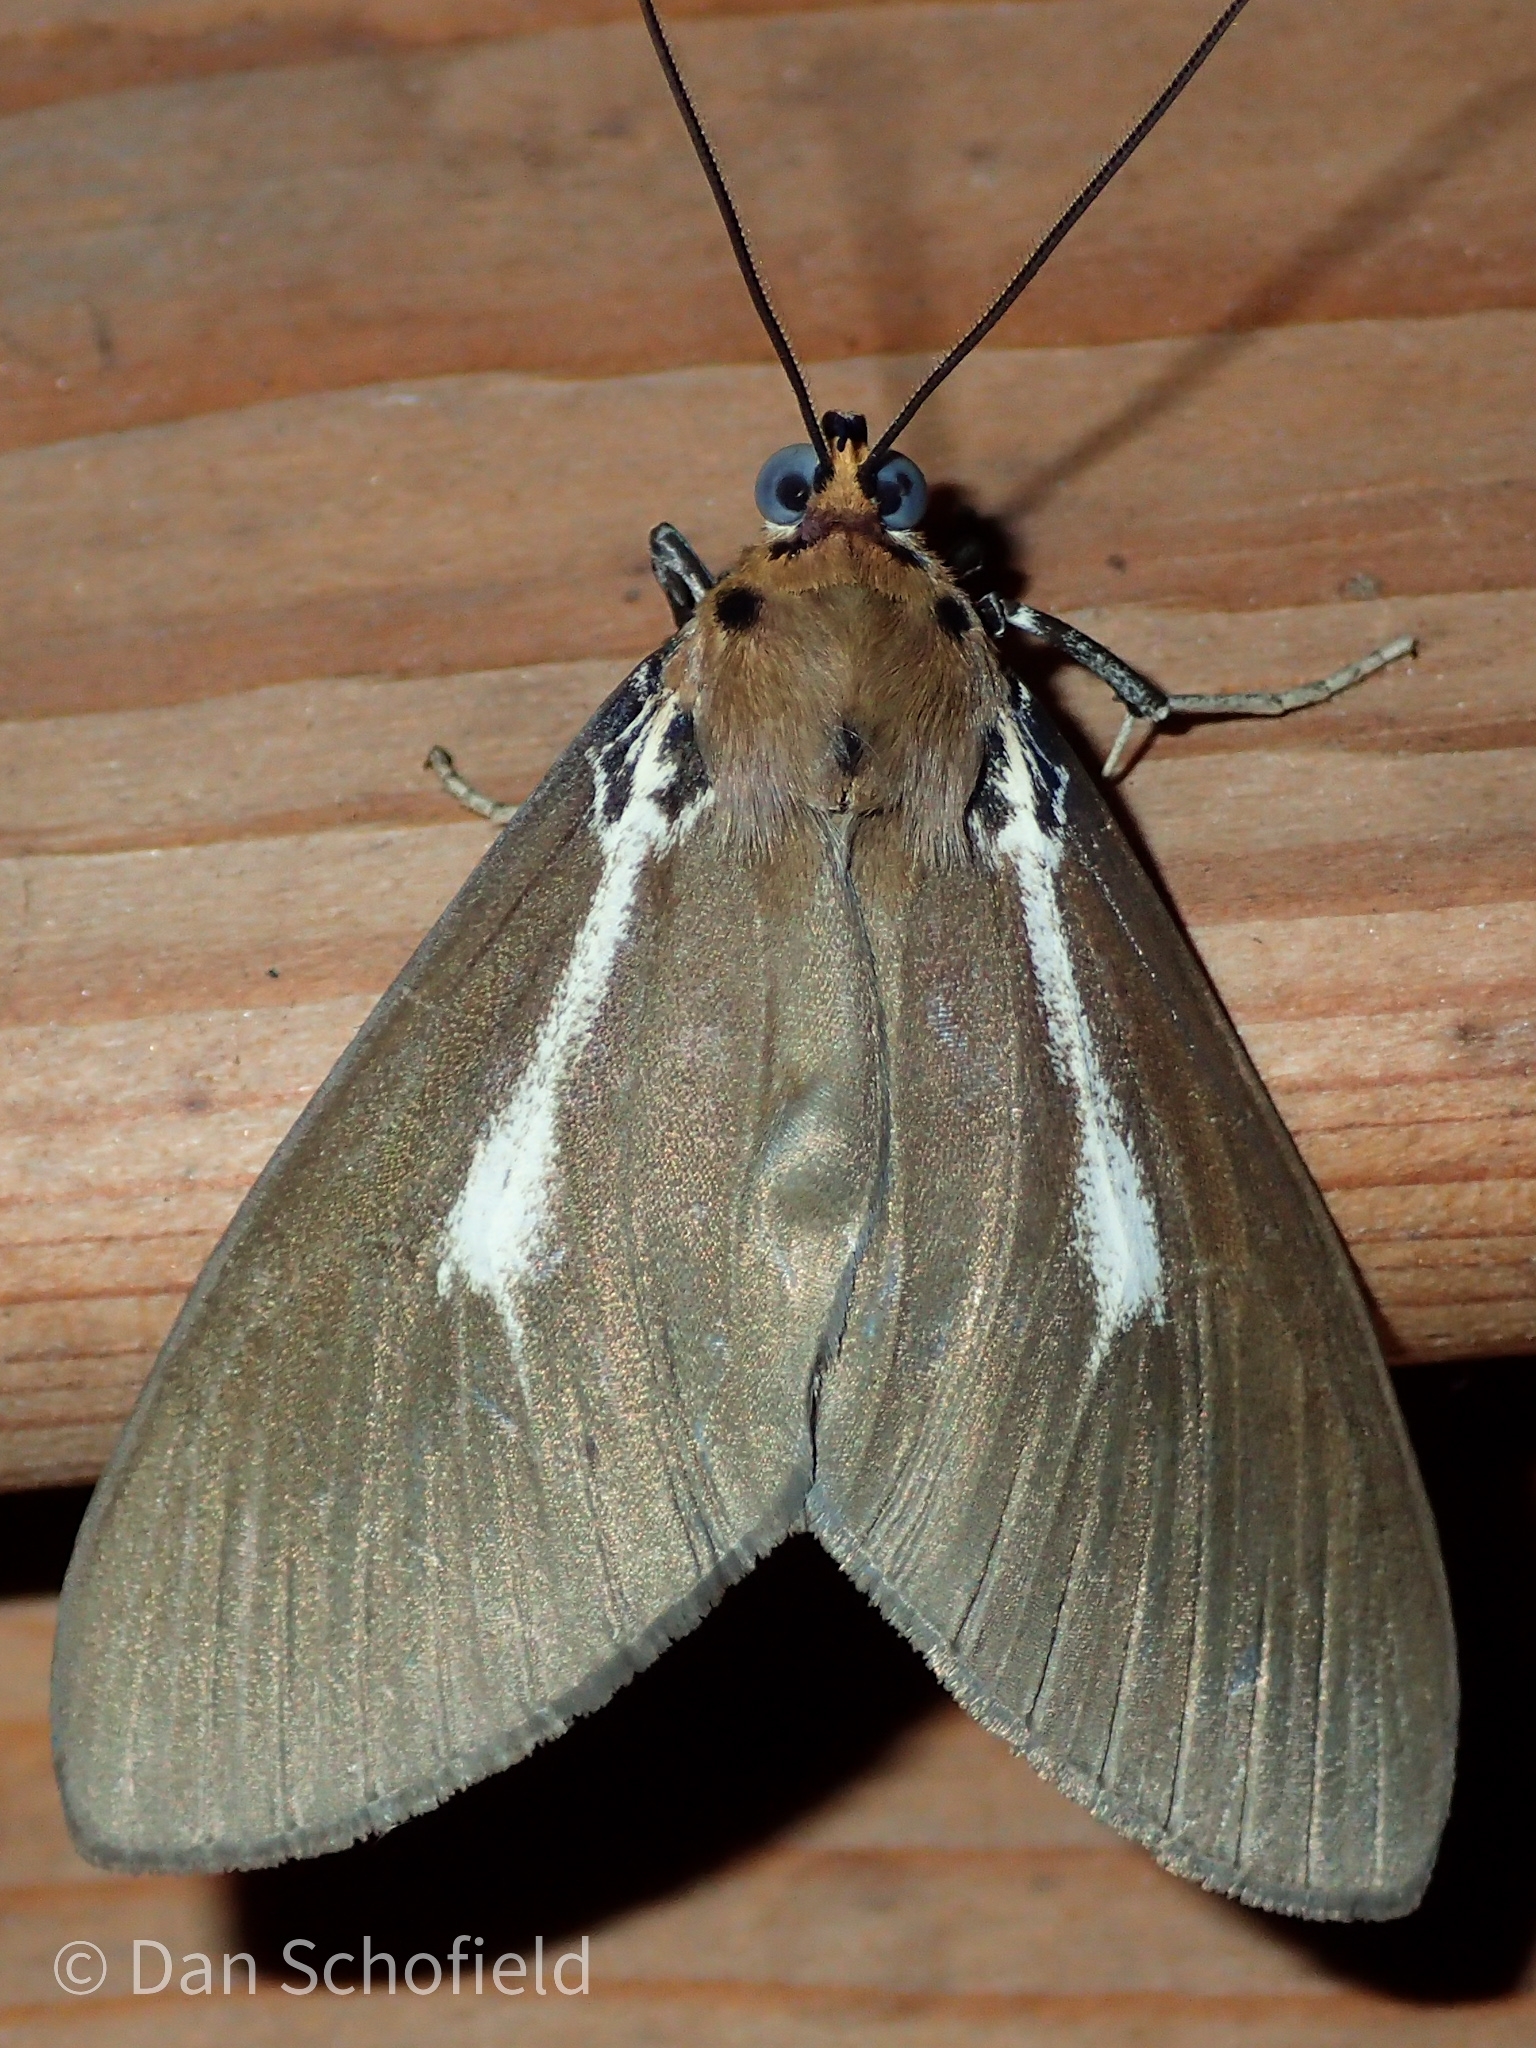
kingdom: Animalia
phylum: Arthropoda
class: Insecta
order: Lepidoptera
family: Erebidae
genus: Asota
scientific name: Asota heliconia
